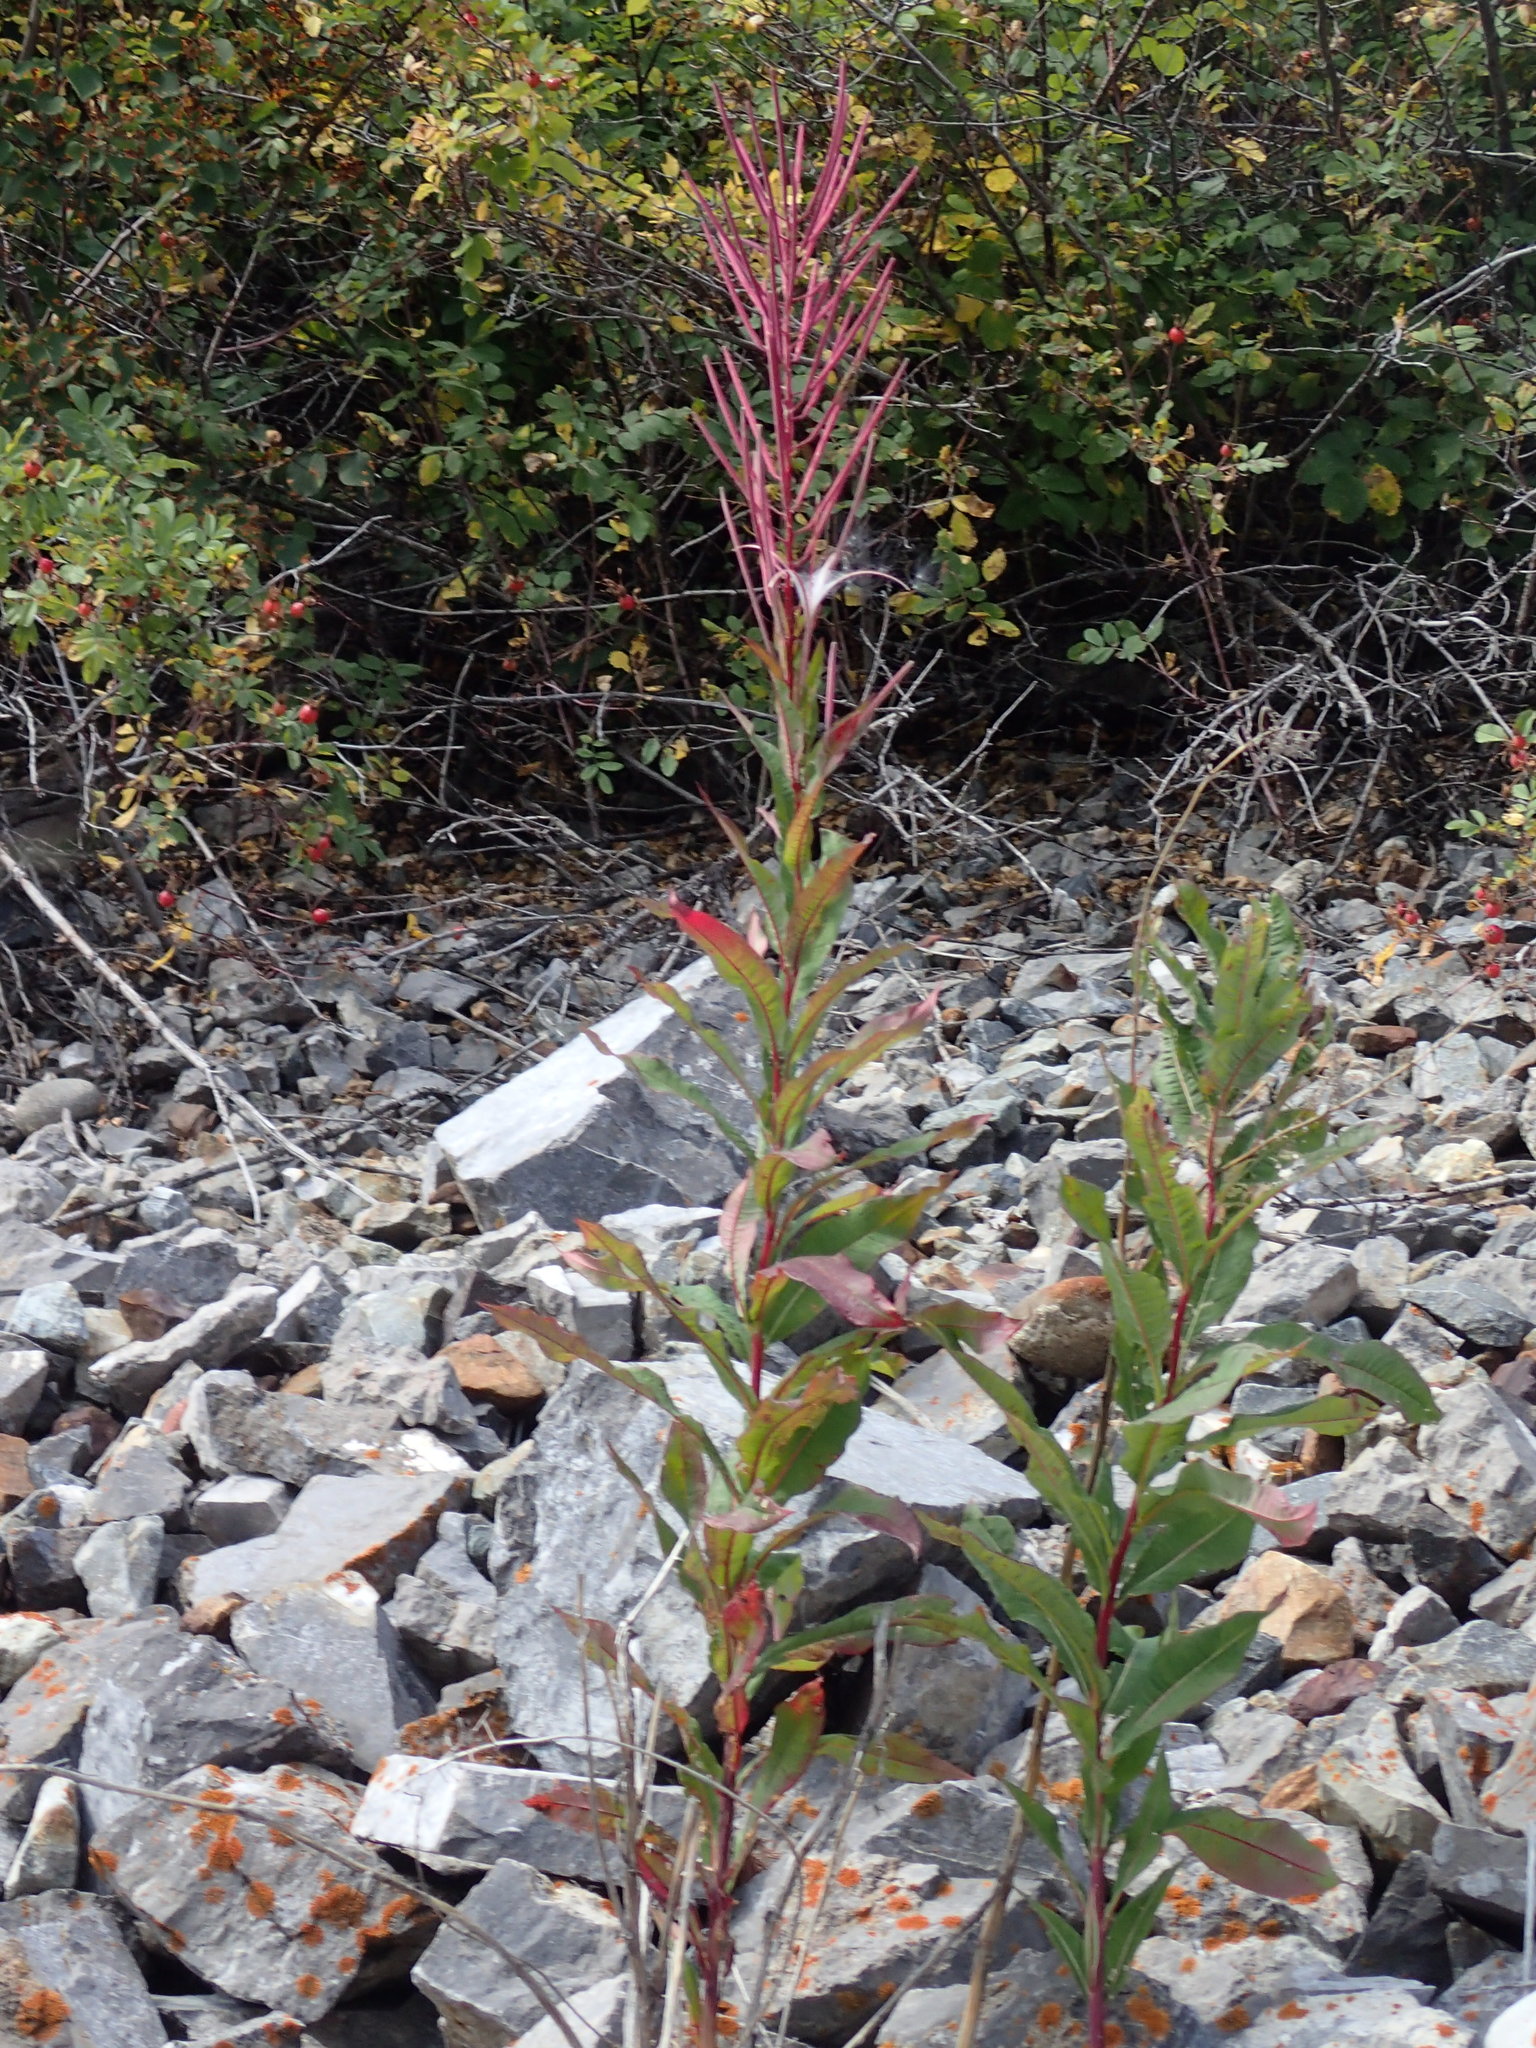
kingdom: Plantae
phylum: Tracheophyta
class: Magnoliopsida
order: Myrtales
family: Onagraceae
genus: Chamaenerion
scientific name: Chamaenerion angustifolium
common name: Fireweed
